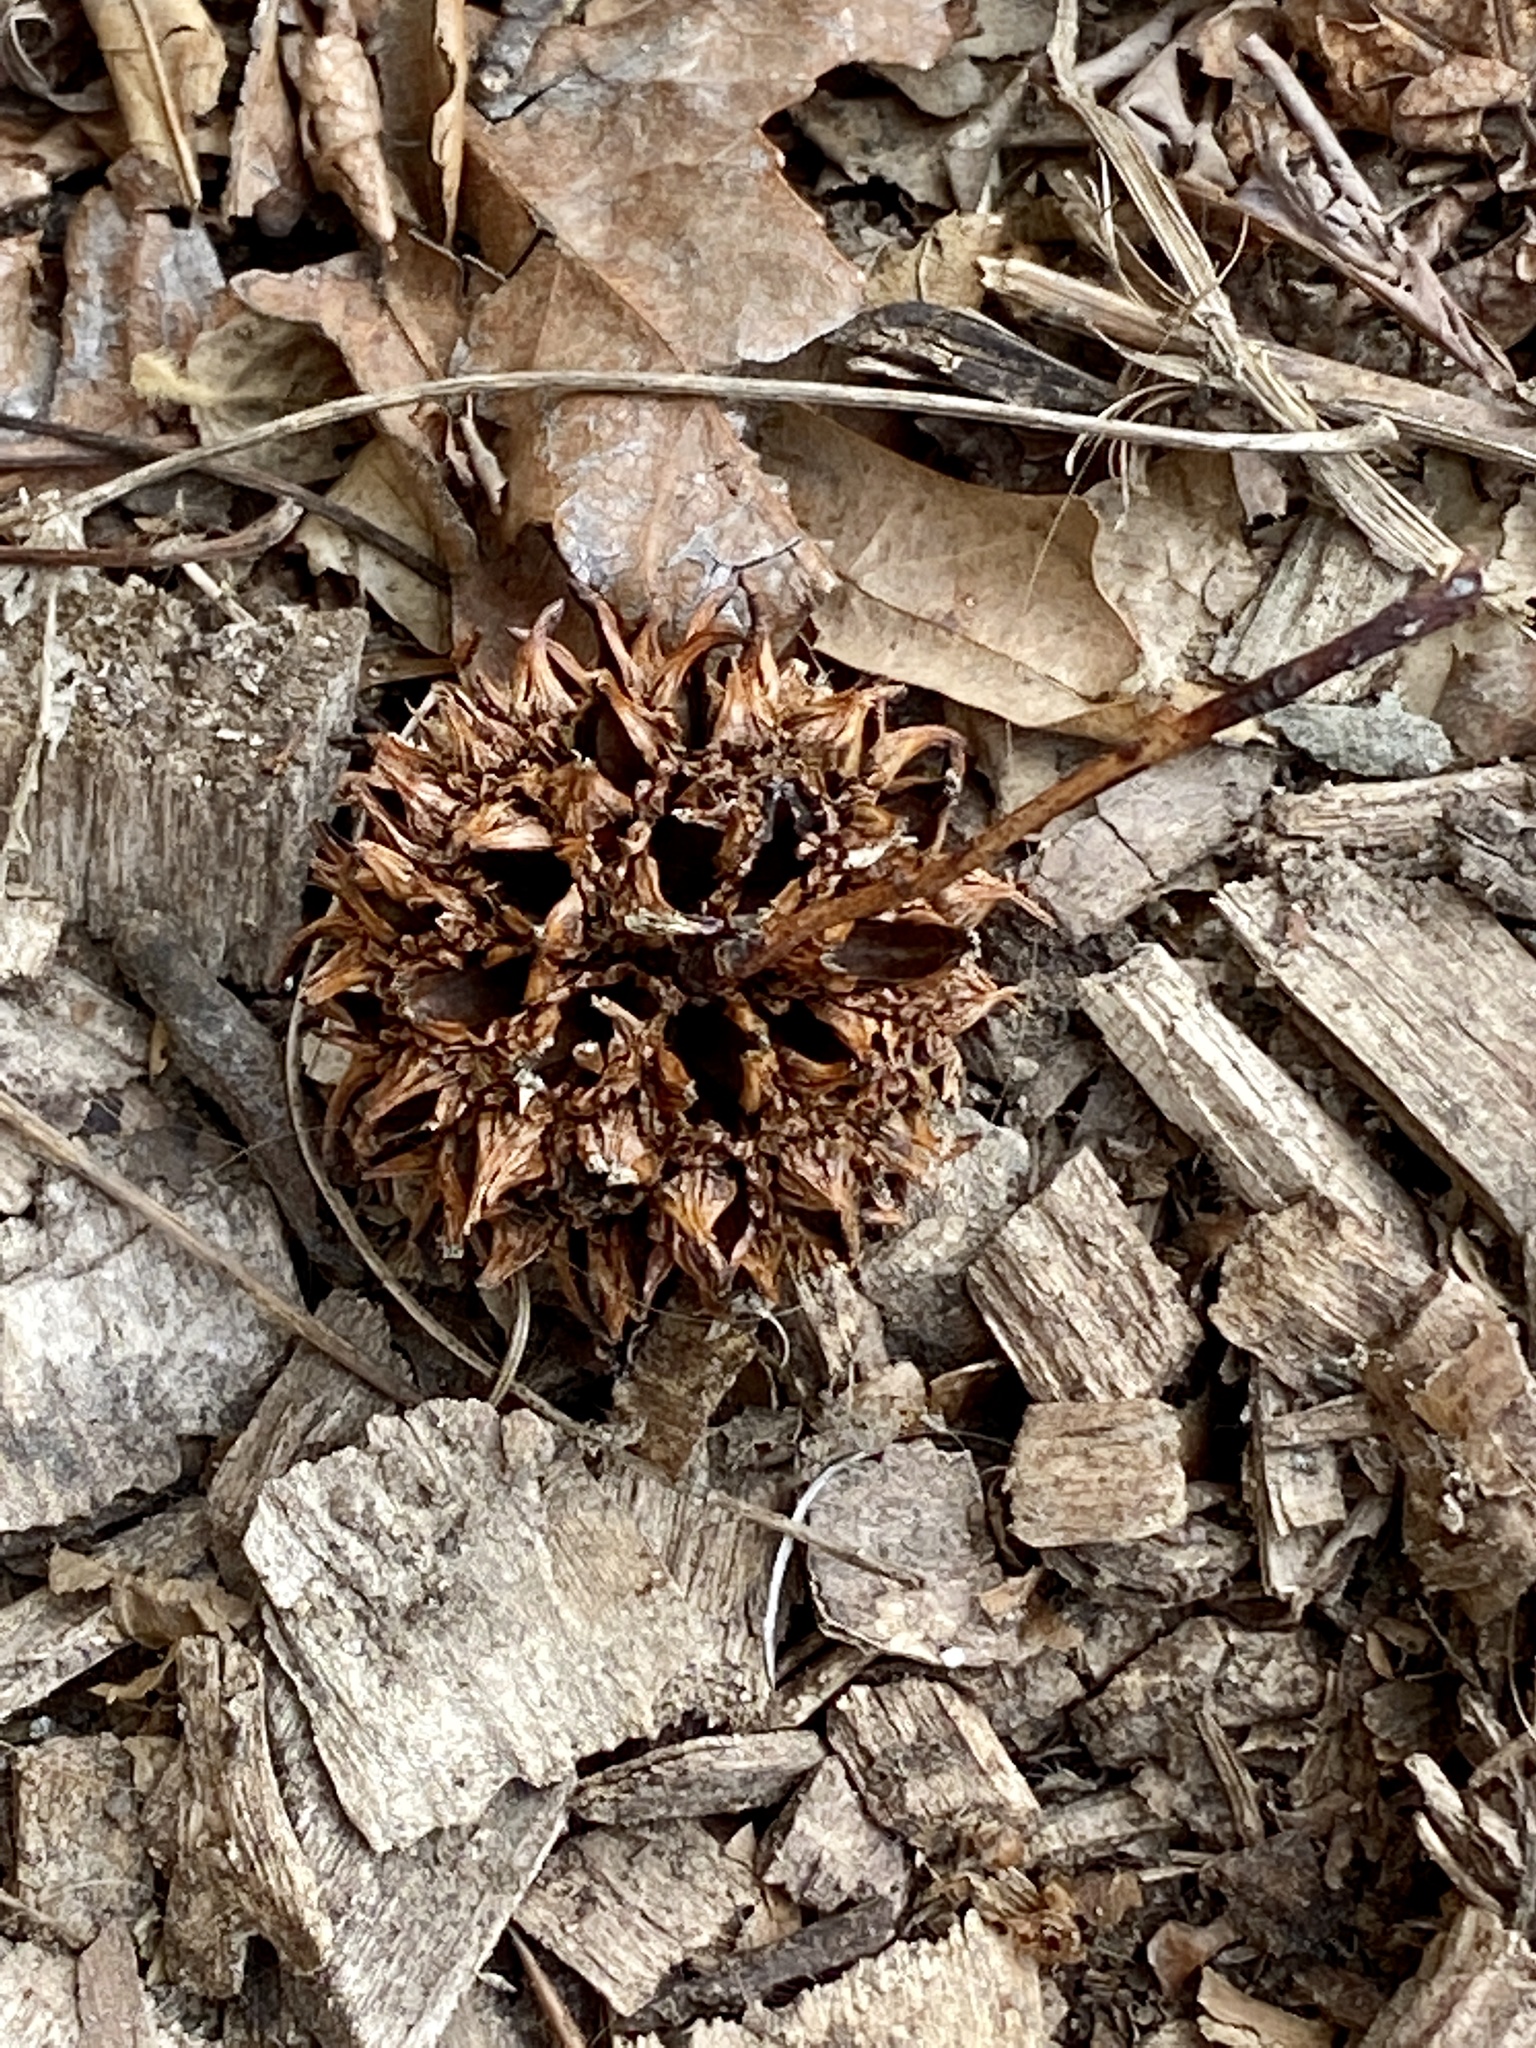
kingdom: Plantae
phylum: Tracheophyta
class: Magnoliopsida
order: Saxifragales
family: Altingiaceae
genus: Liquidambar
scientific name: Liquidambar styraciflua
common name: Sweet gum
